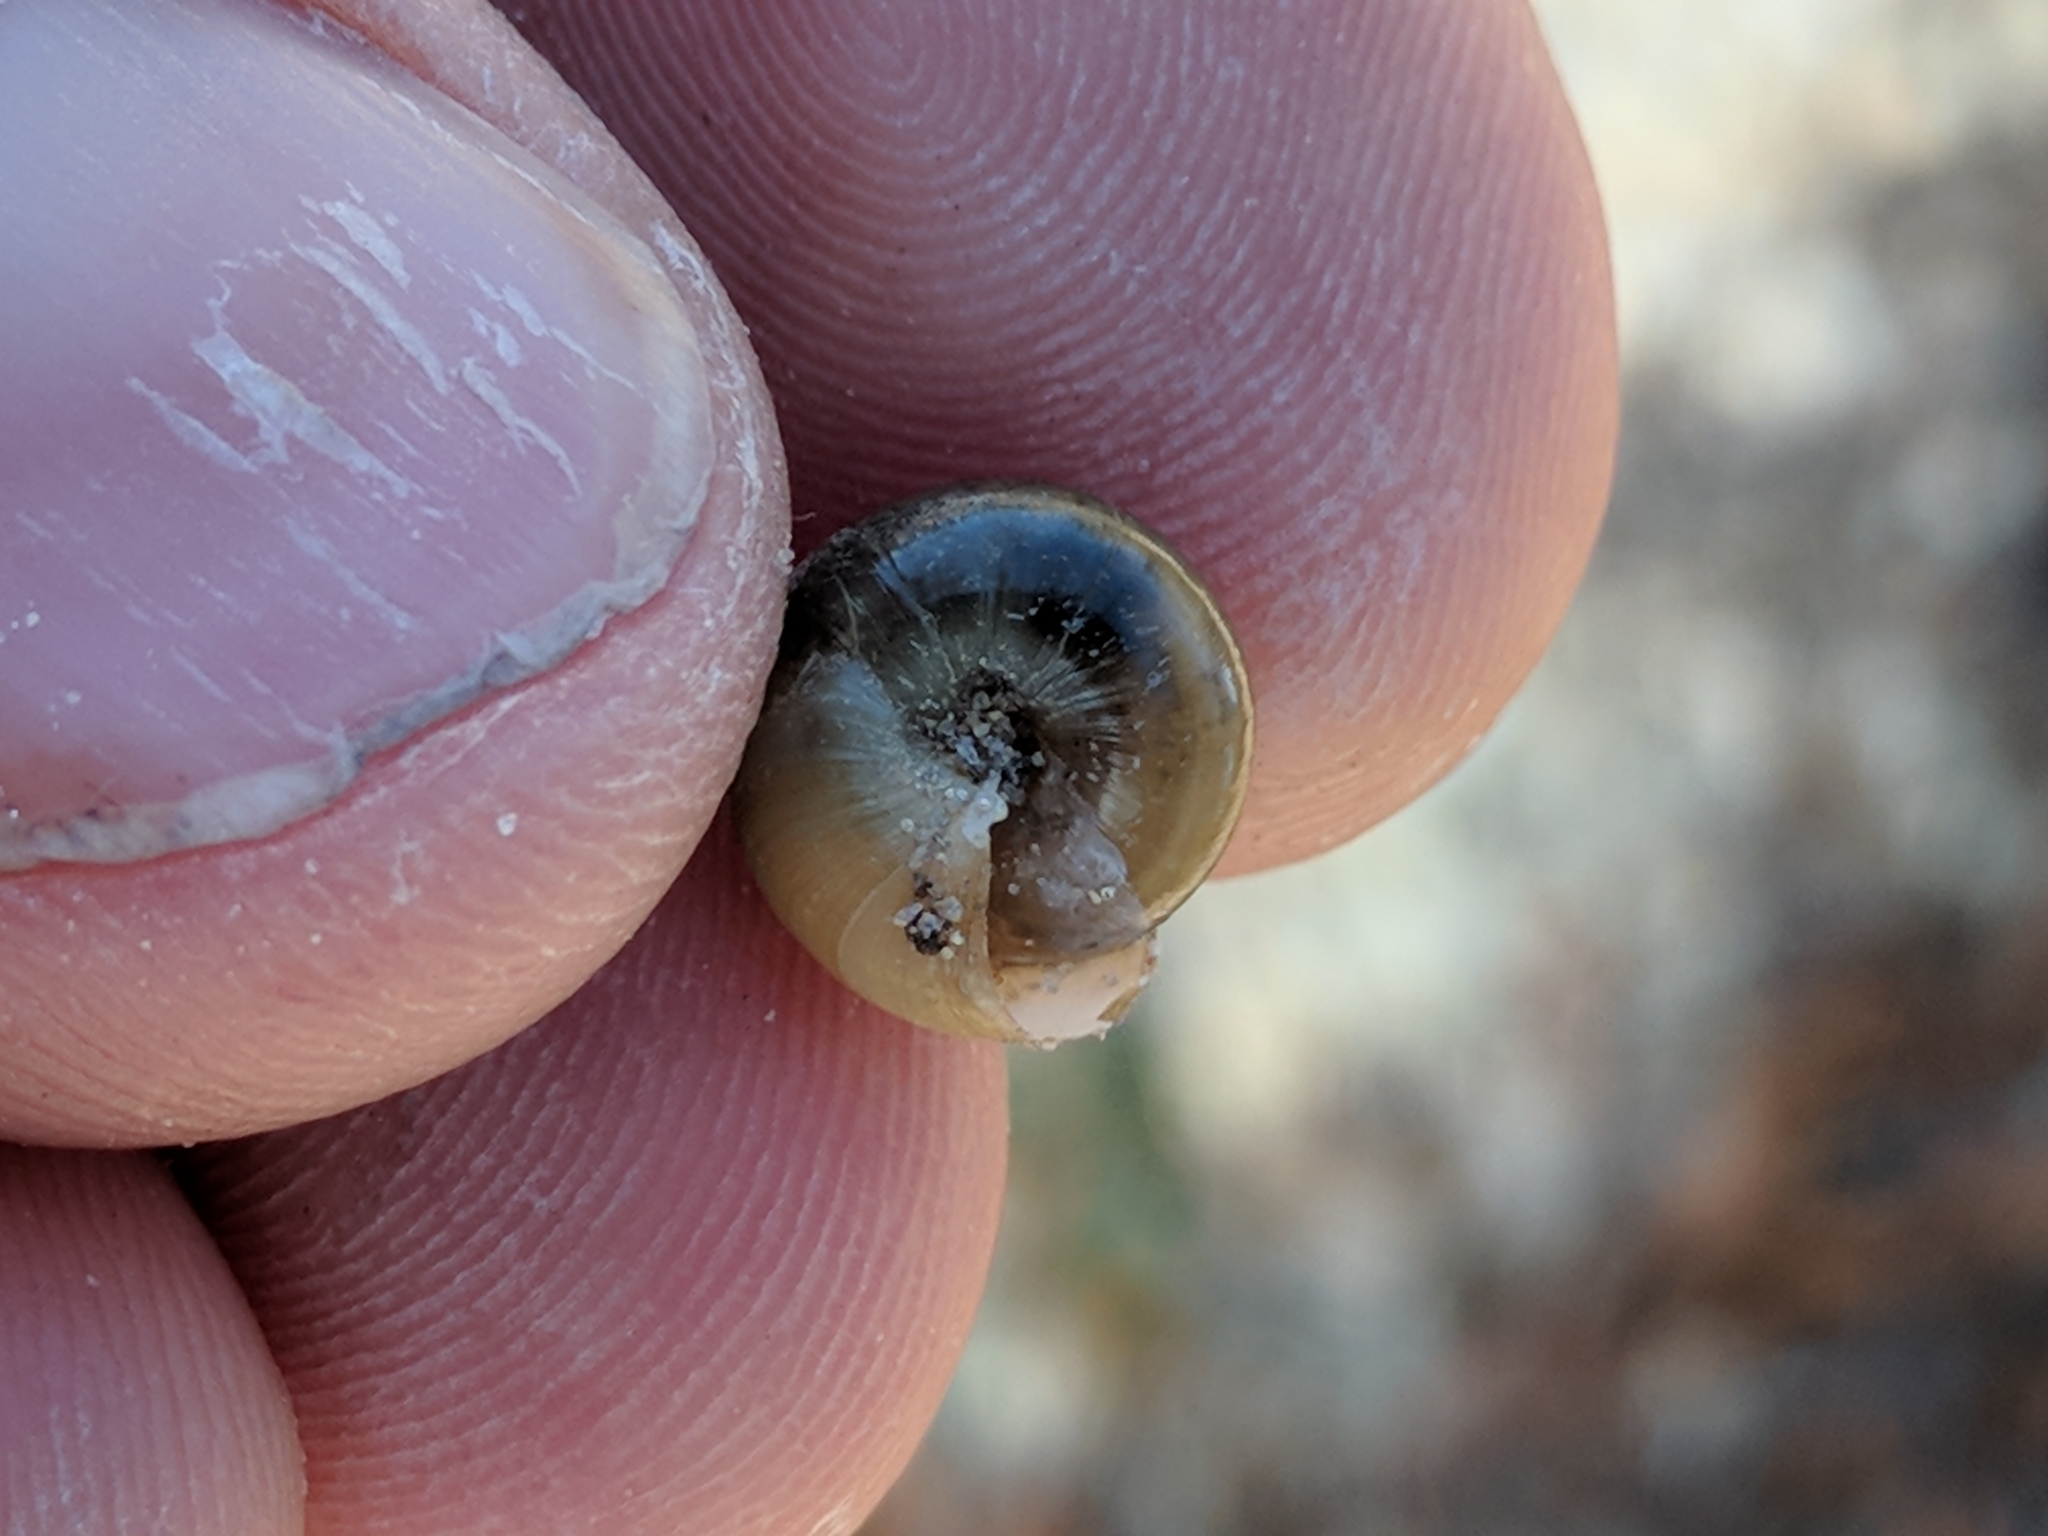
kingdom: Animalia
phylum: Mollusca
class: Gastropoda
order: Stylommatophora
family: Gastrodontidae
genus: Ventridens
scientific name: Ventridens demissus
